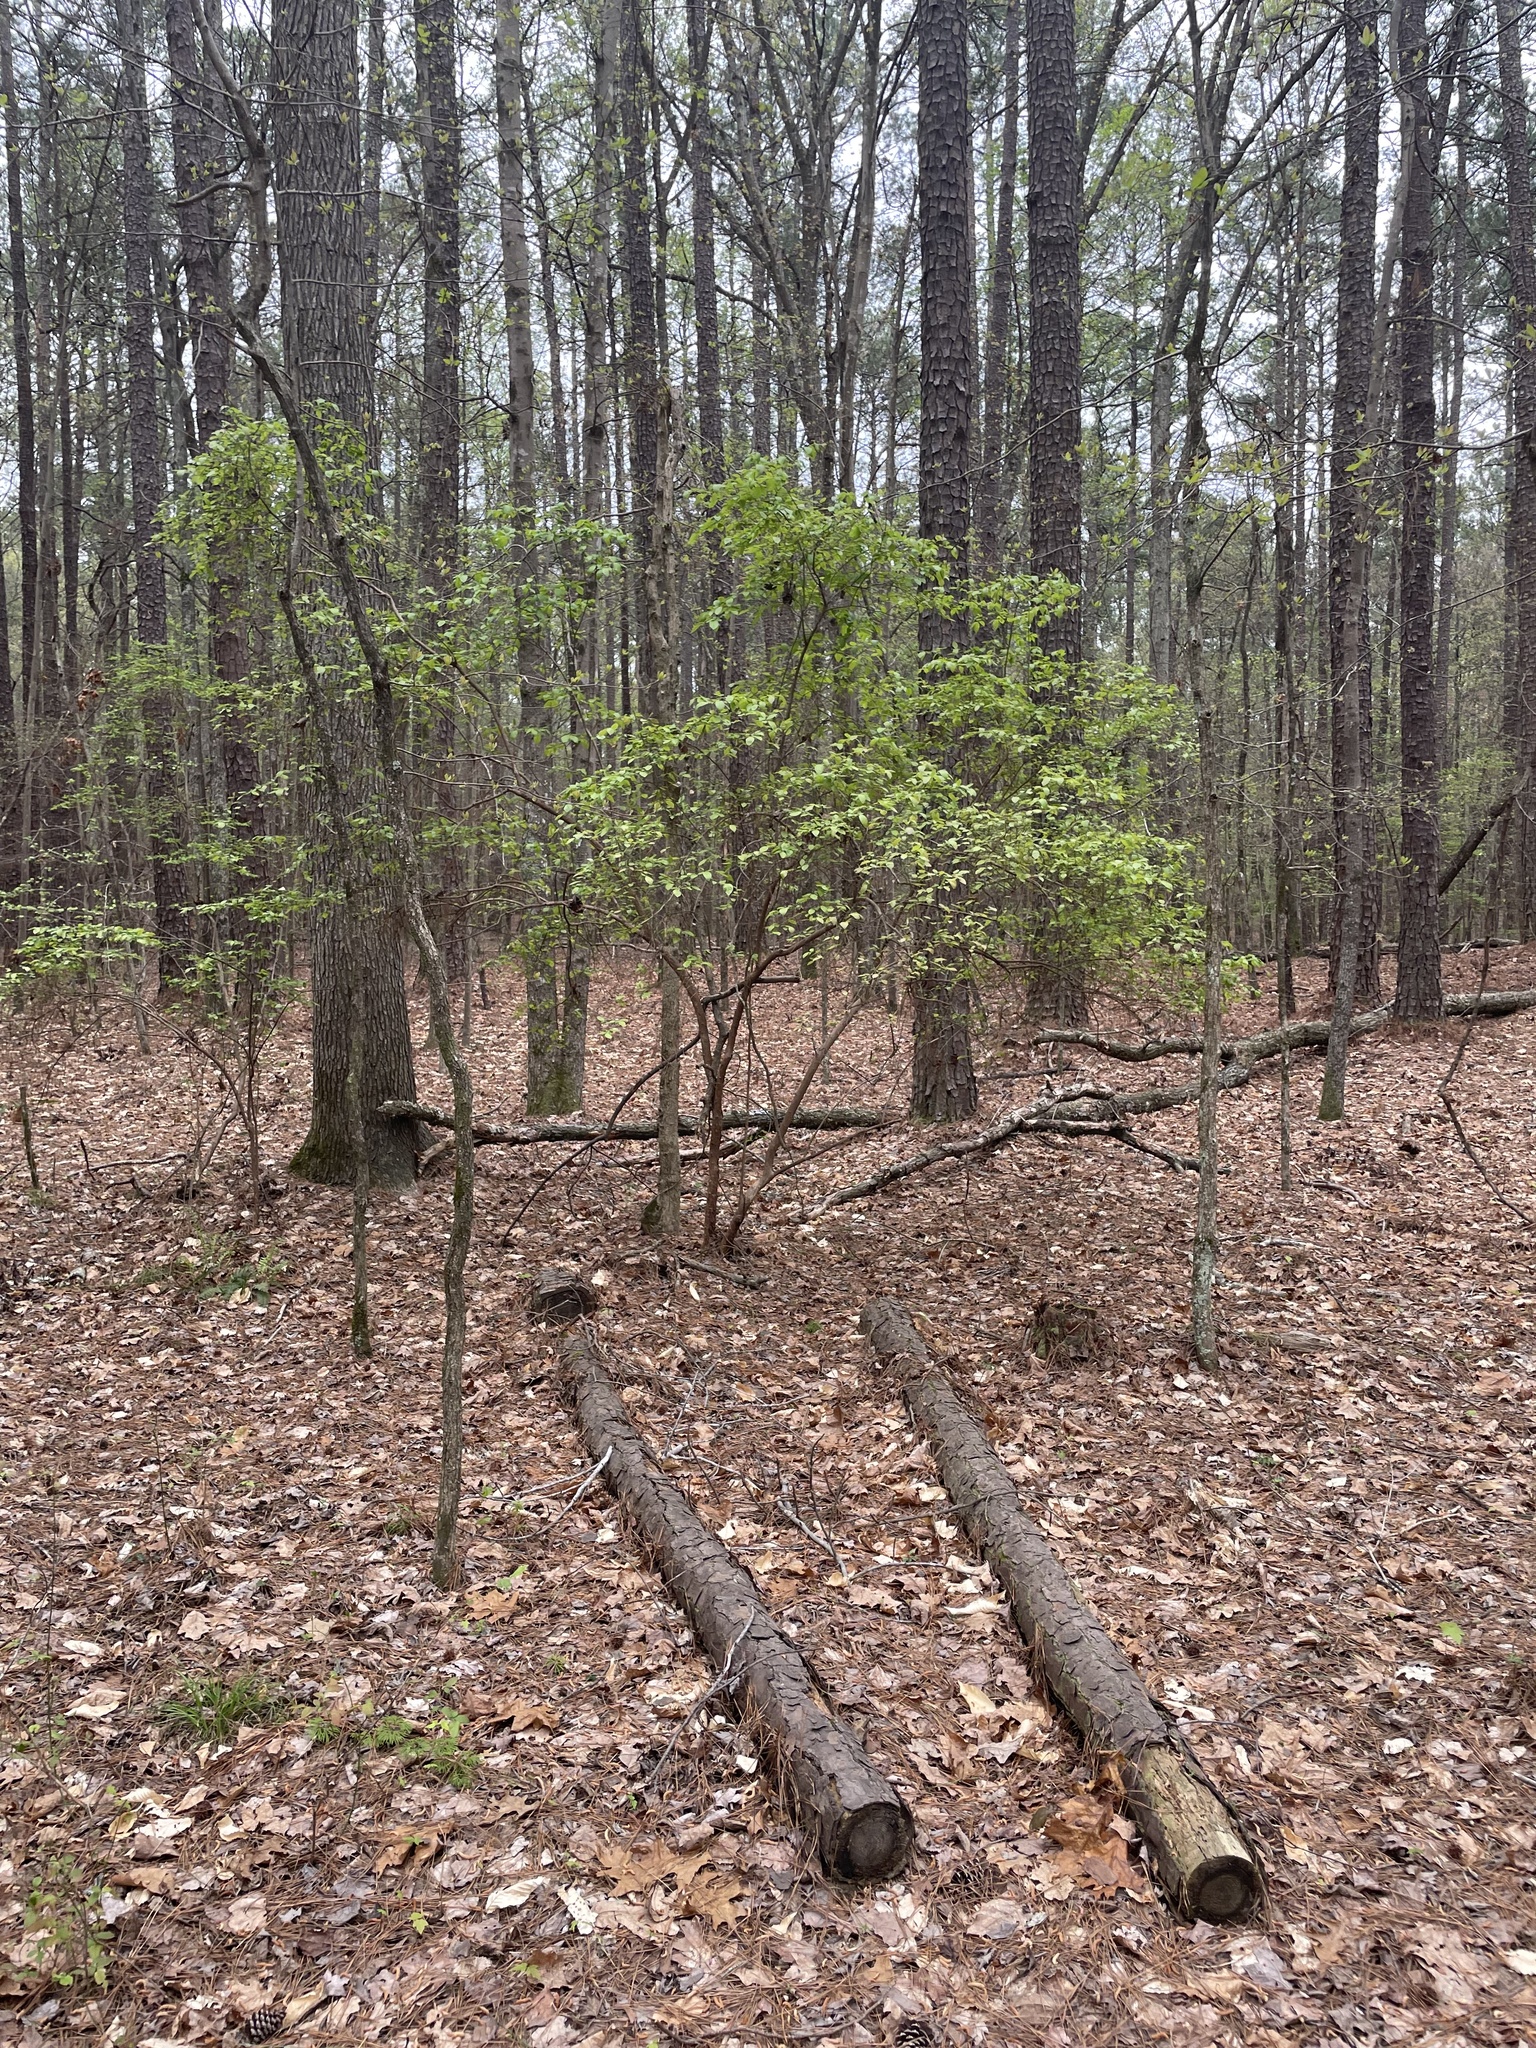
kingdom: Plantae
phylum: Tracheophyta
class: Magnoliopsida
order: Ericales
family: Ericaceae
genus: Vaccinium
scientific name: Vaccinium arboreum
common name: Farkleberry
